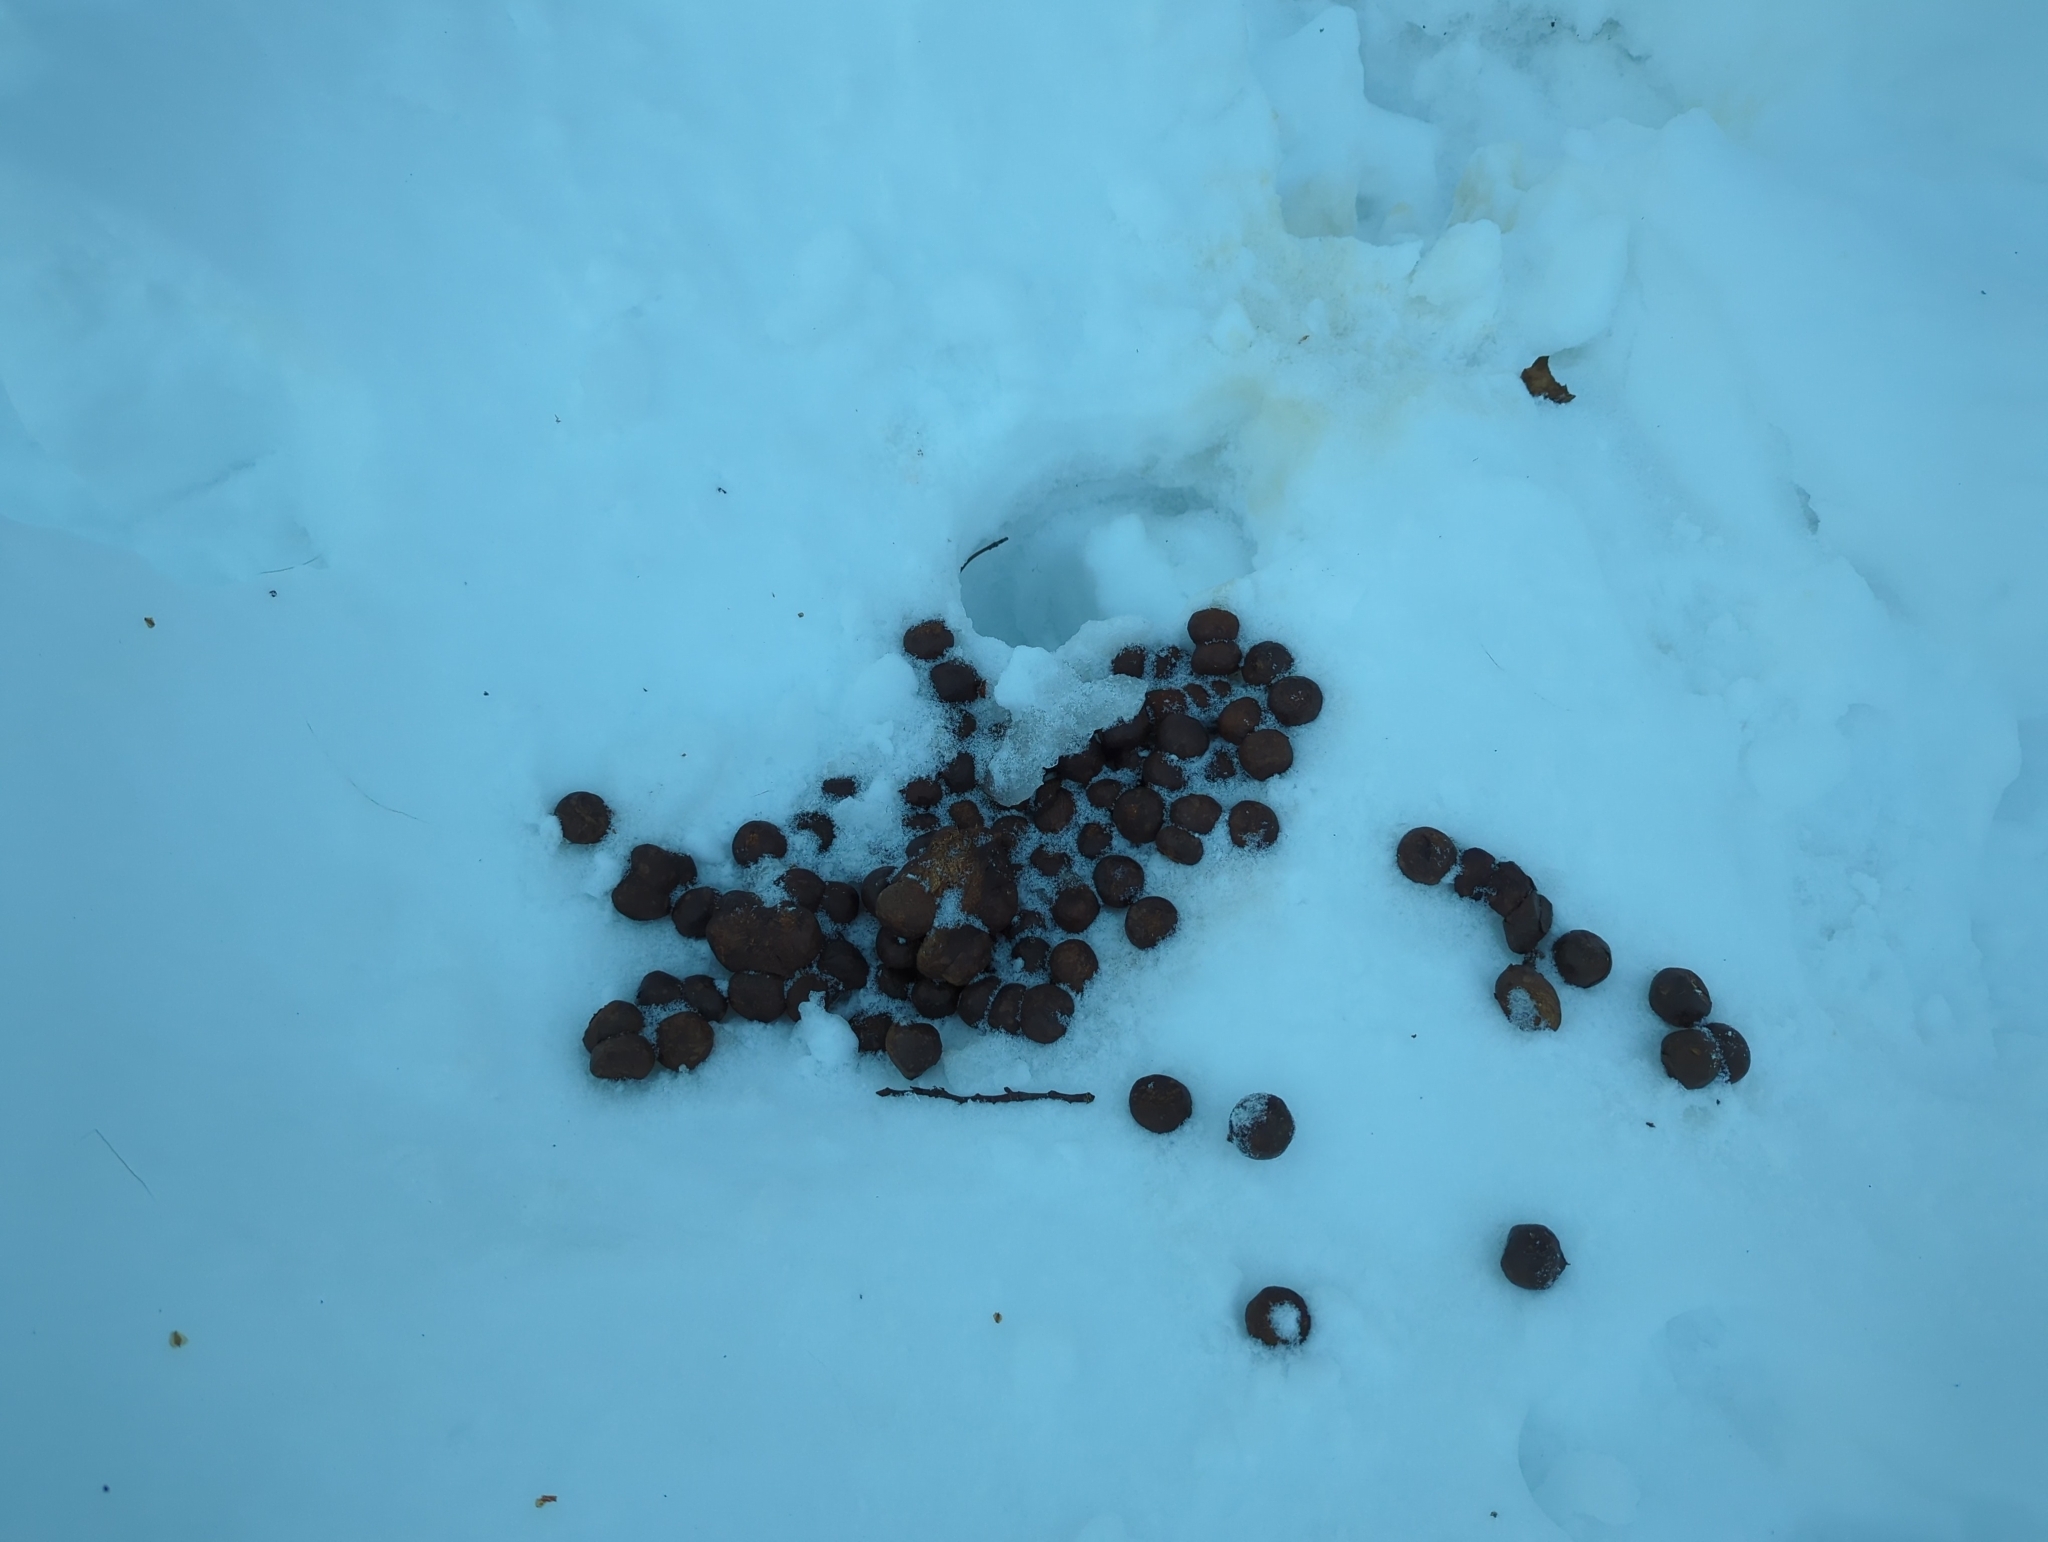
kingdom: Animalia
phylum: Chordata
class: Mammalia
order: Artiodactyla
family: Cervidae
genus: Alces
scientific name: Alces alces
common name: Moose
